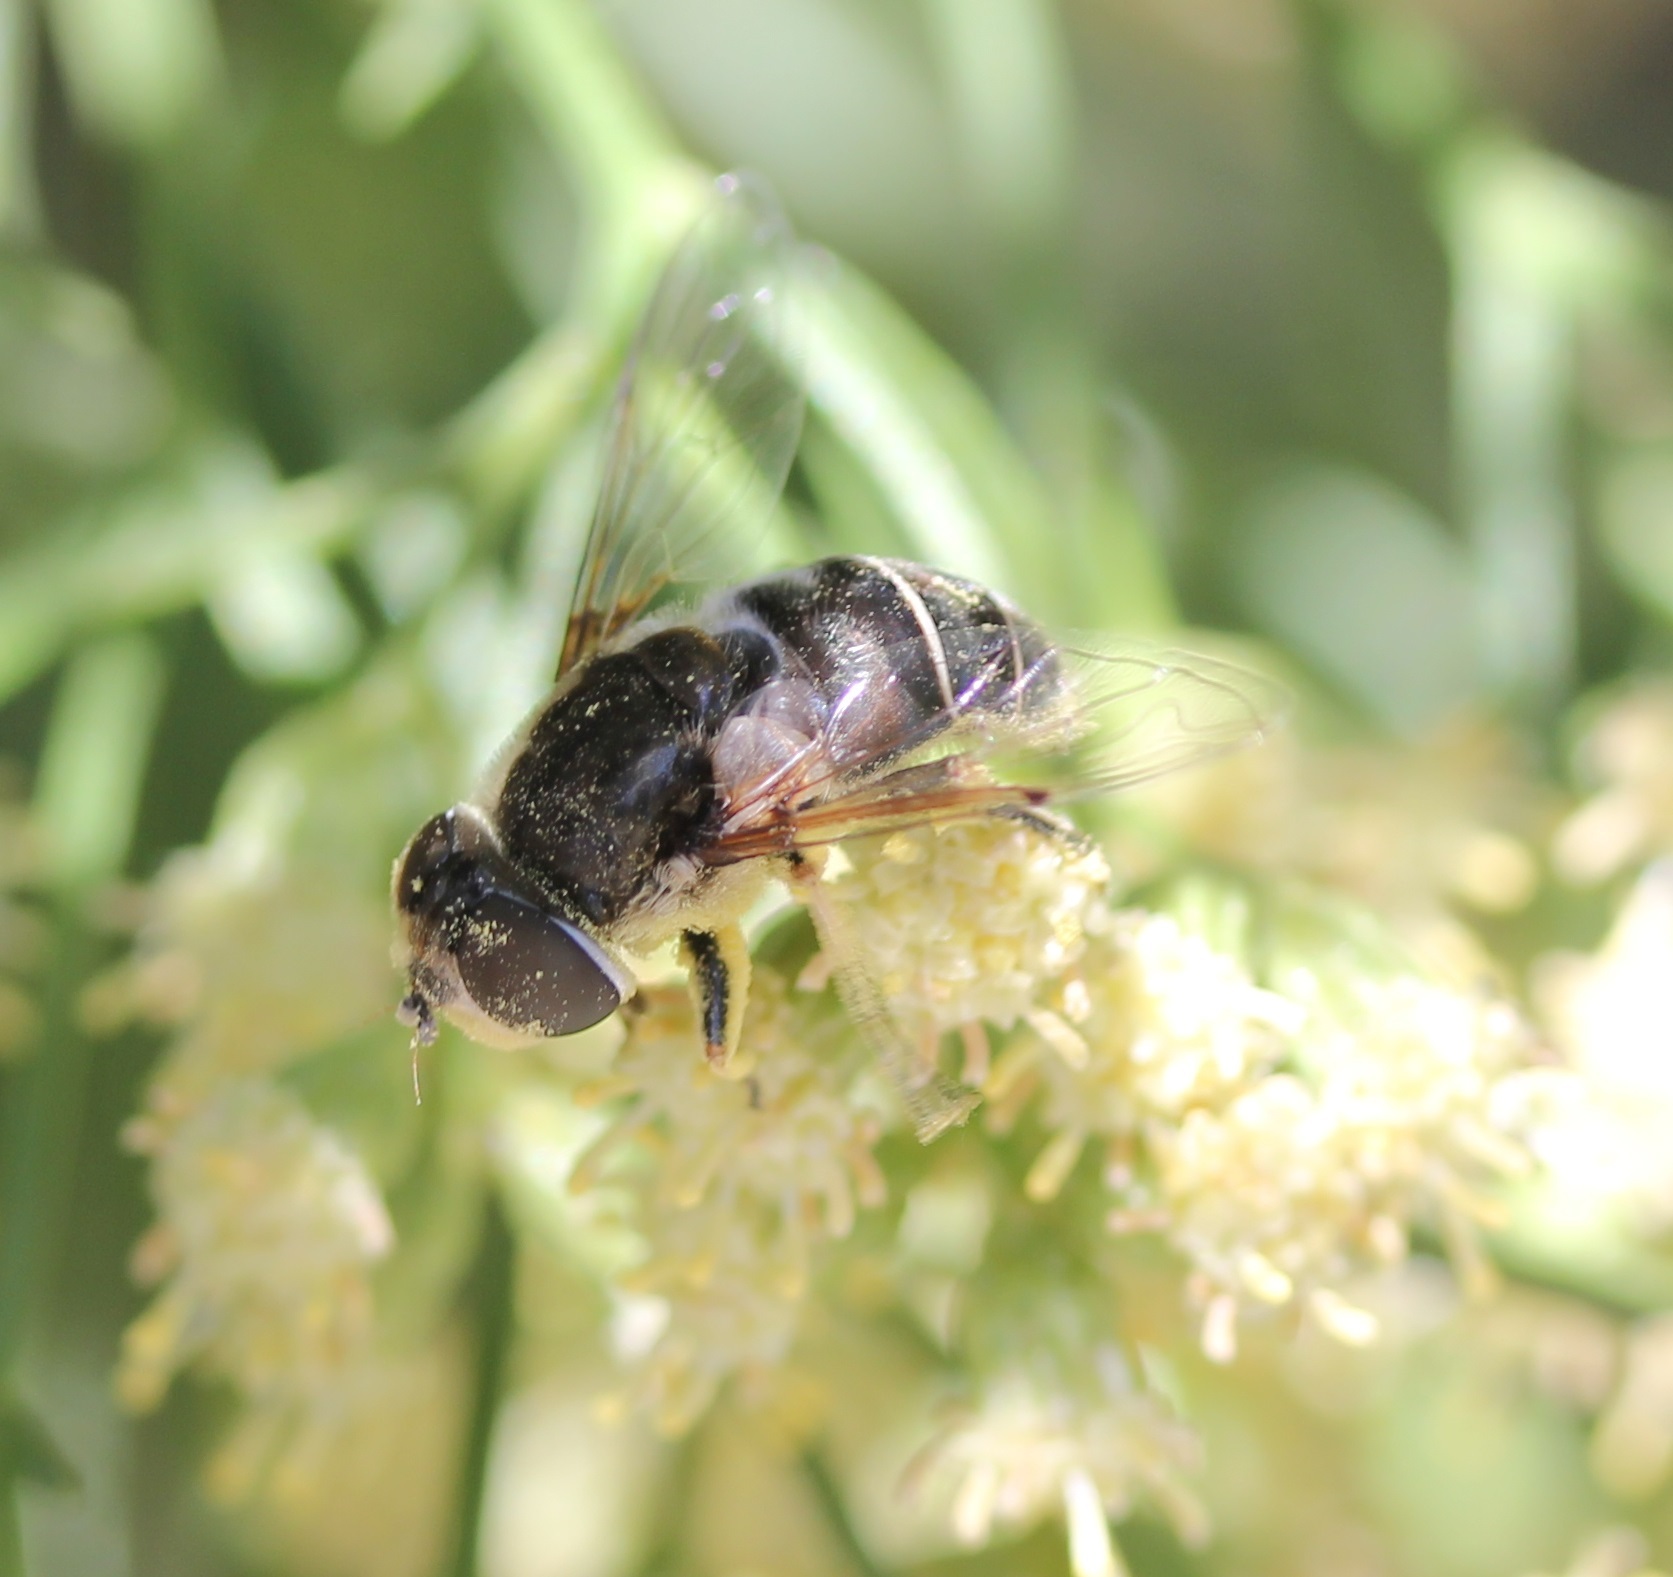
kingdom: Animalia
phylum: Arthropoda
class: Insecta
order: Diptera
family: Syrphidae
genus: Eristalis
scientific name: Eristalis dimidiata
